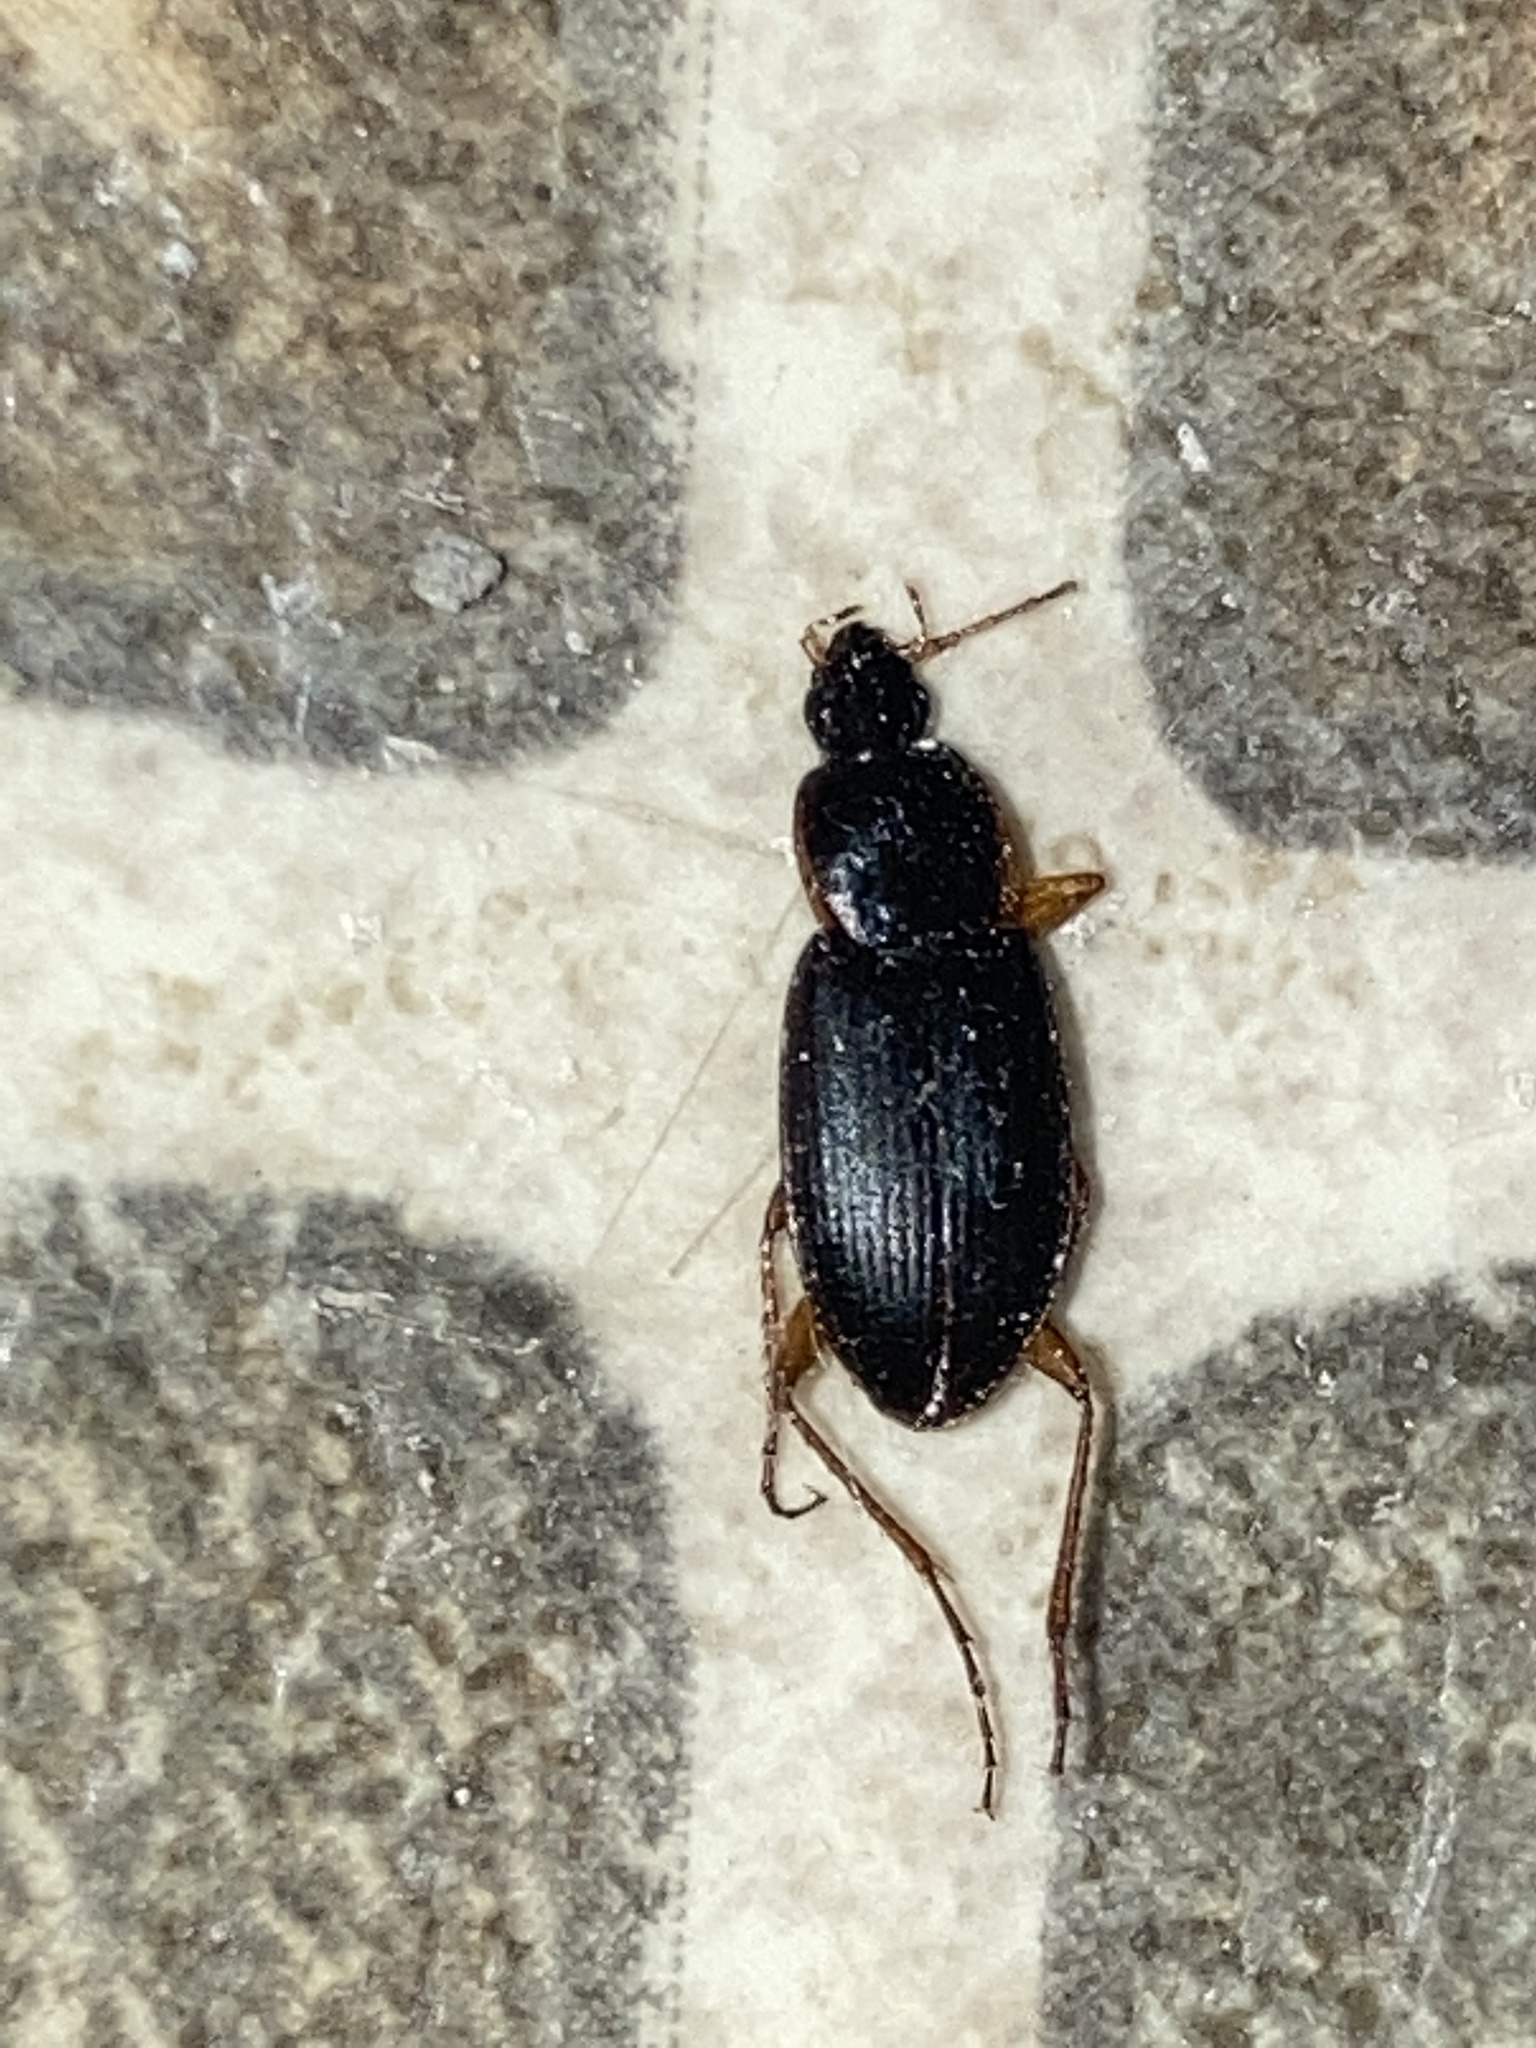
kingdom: Animalia
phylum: Arthropoda
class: Insecta
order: Coleoptera
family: Carabidae
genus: Calathus
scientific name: Calathus opaculus
